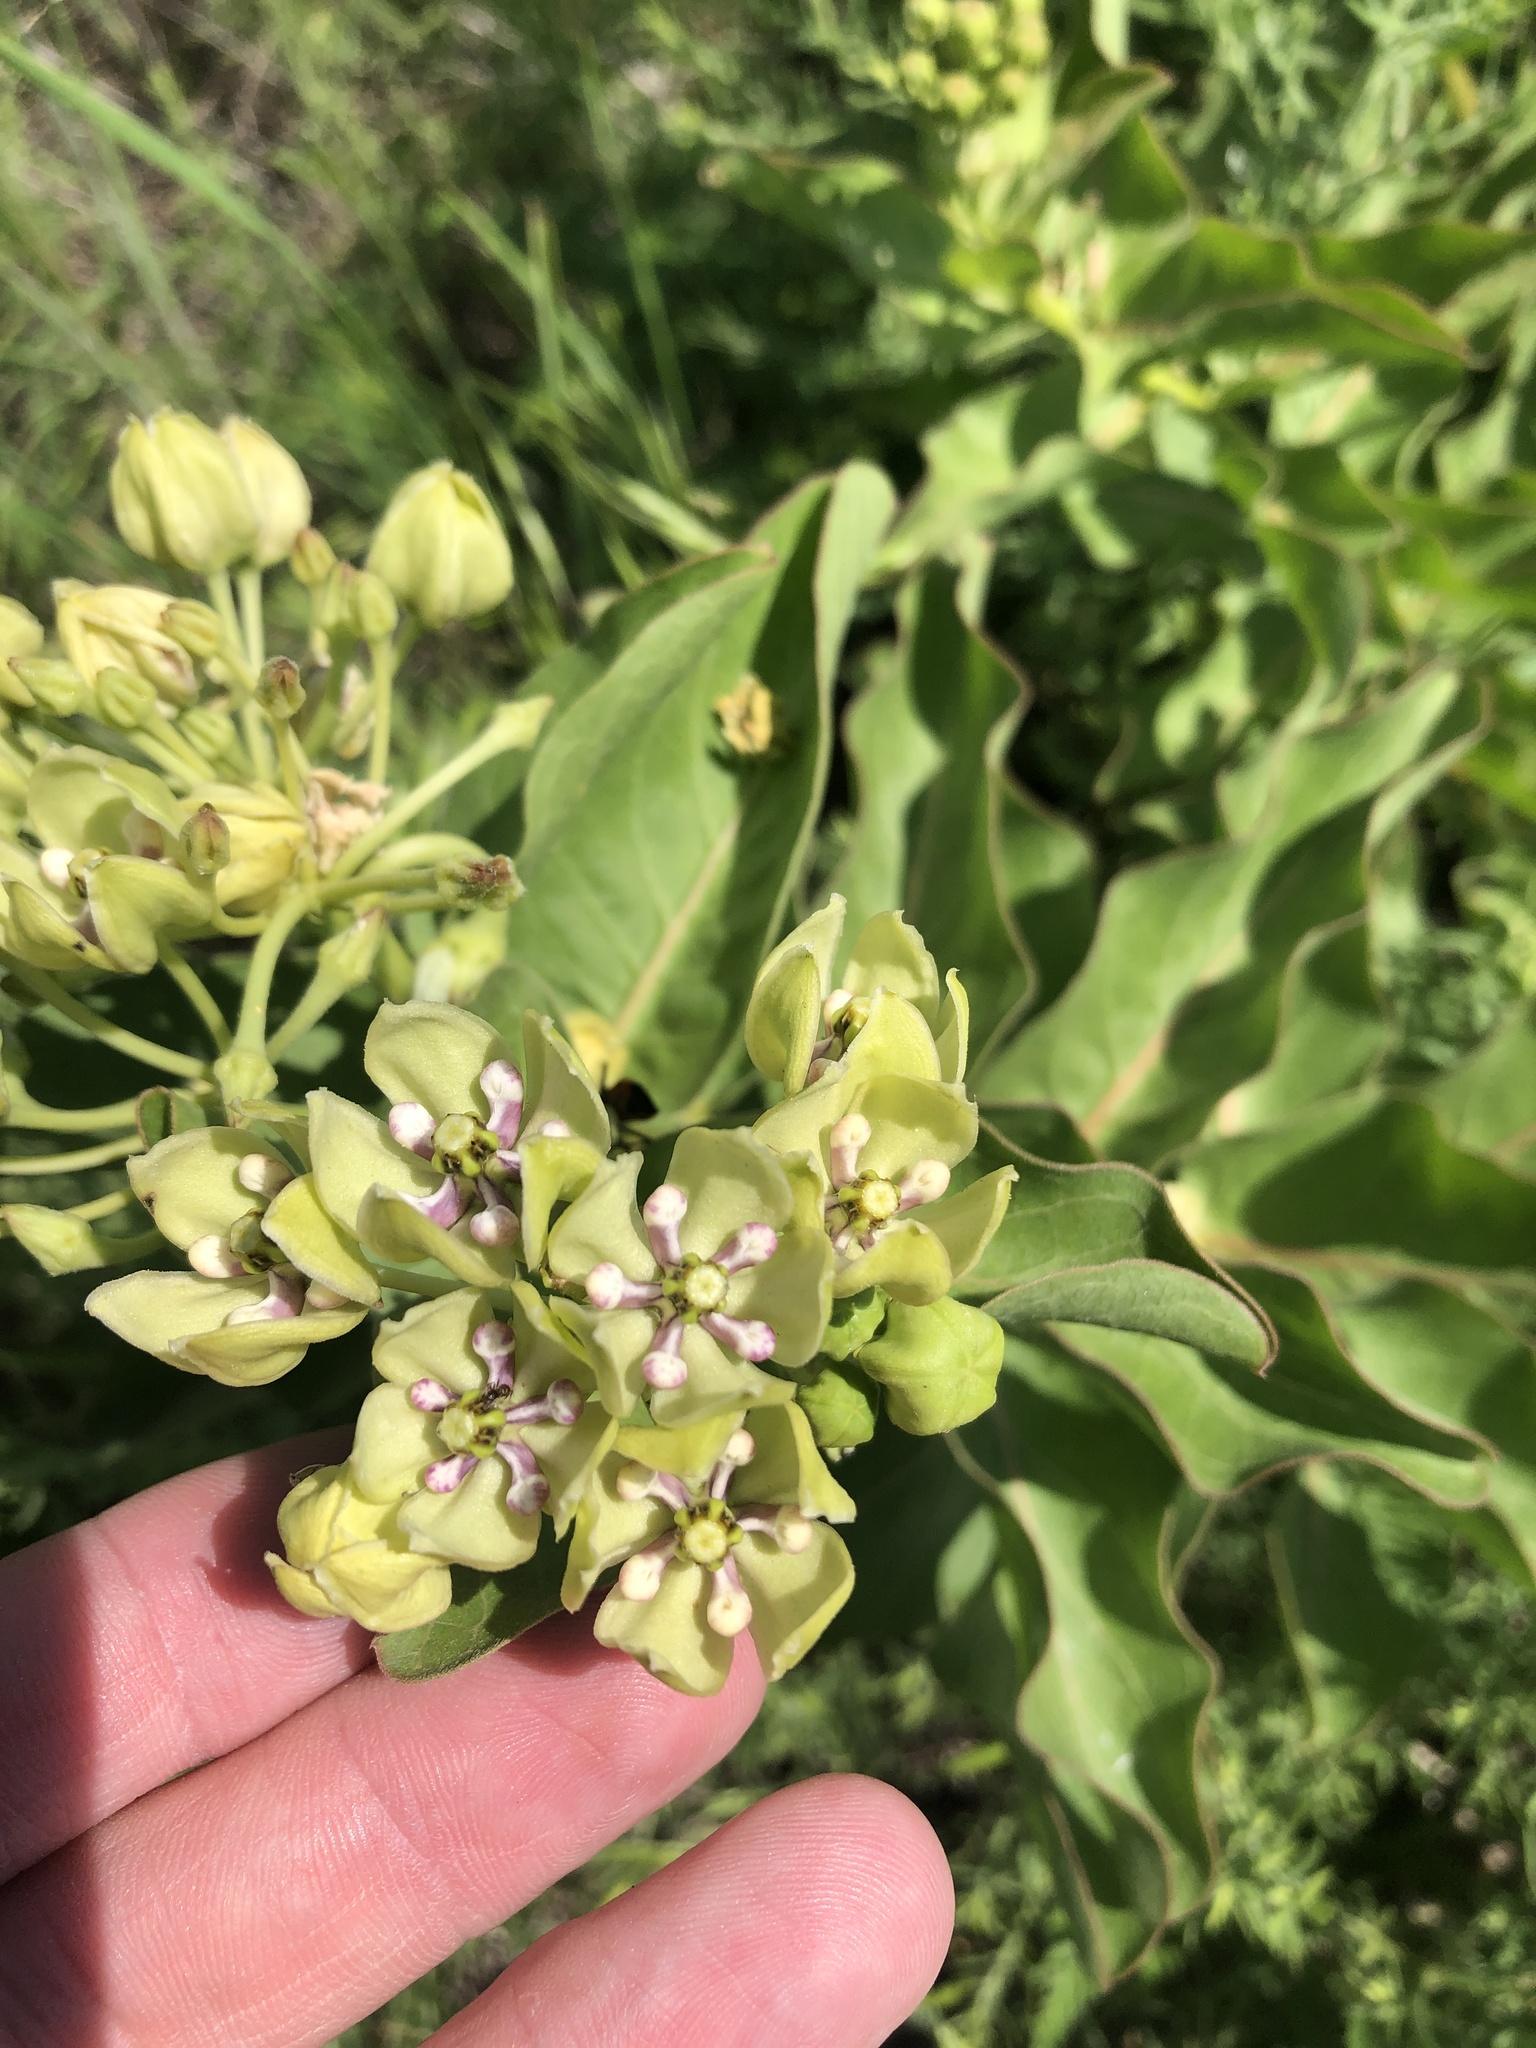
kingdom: Plantae
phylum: Tracheophyta
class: Magnoliopsida
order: Gentianales
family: Apocynaceae
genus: Asclepias
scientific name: Asclepias viridis
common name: Antelope-horns
